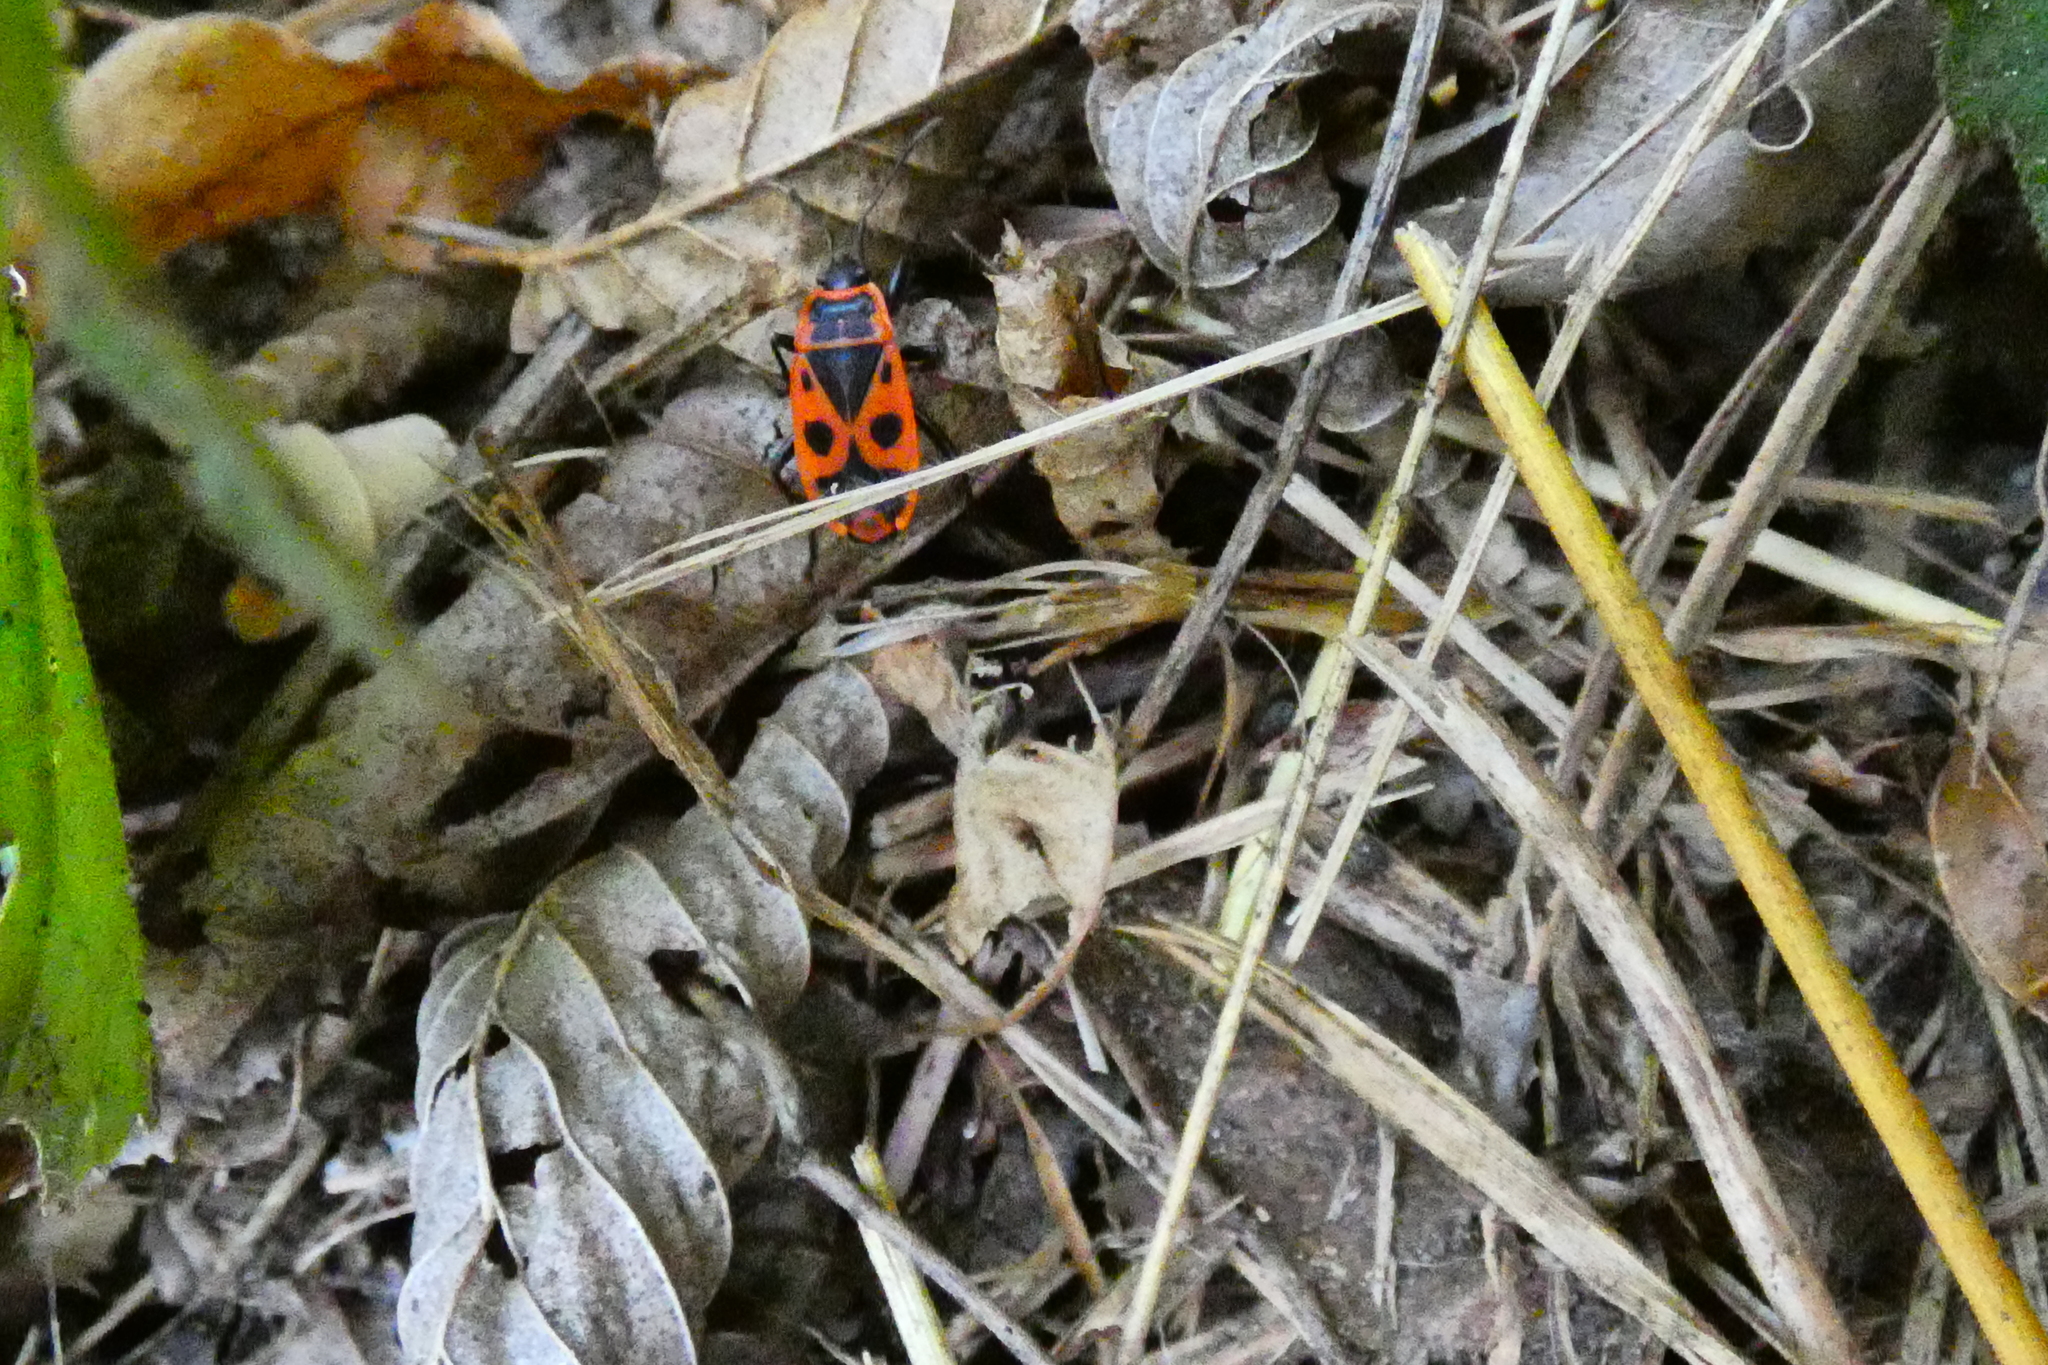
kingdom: Animalia
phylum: Arthropoda
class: Insecta
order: Hemiptera
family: Pyrrhocoridae
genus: Pyrrhocoris
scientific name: Pyrrhocoris apterus
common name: Firebug
